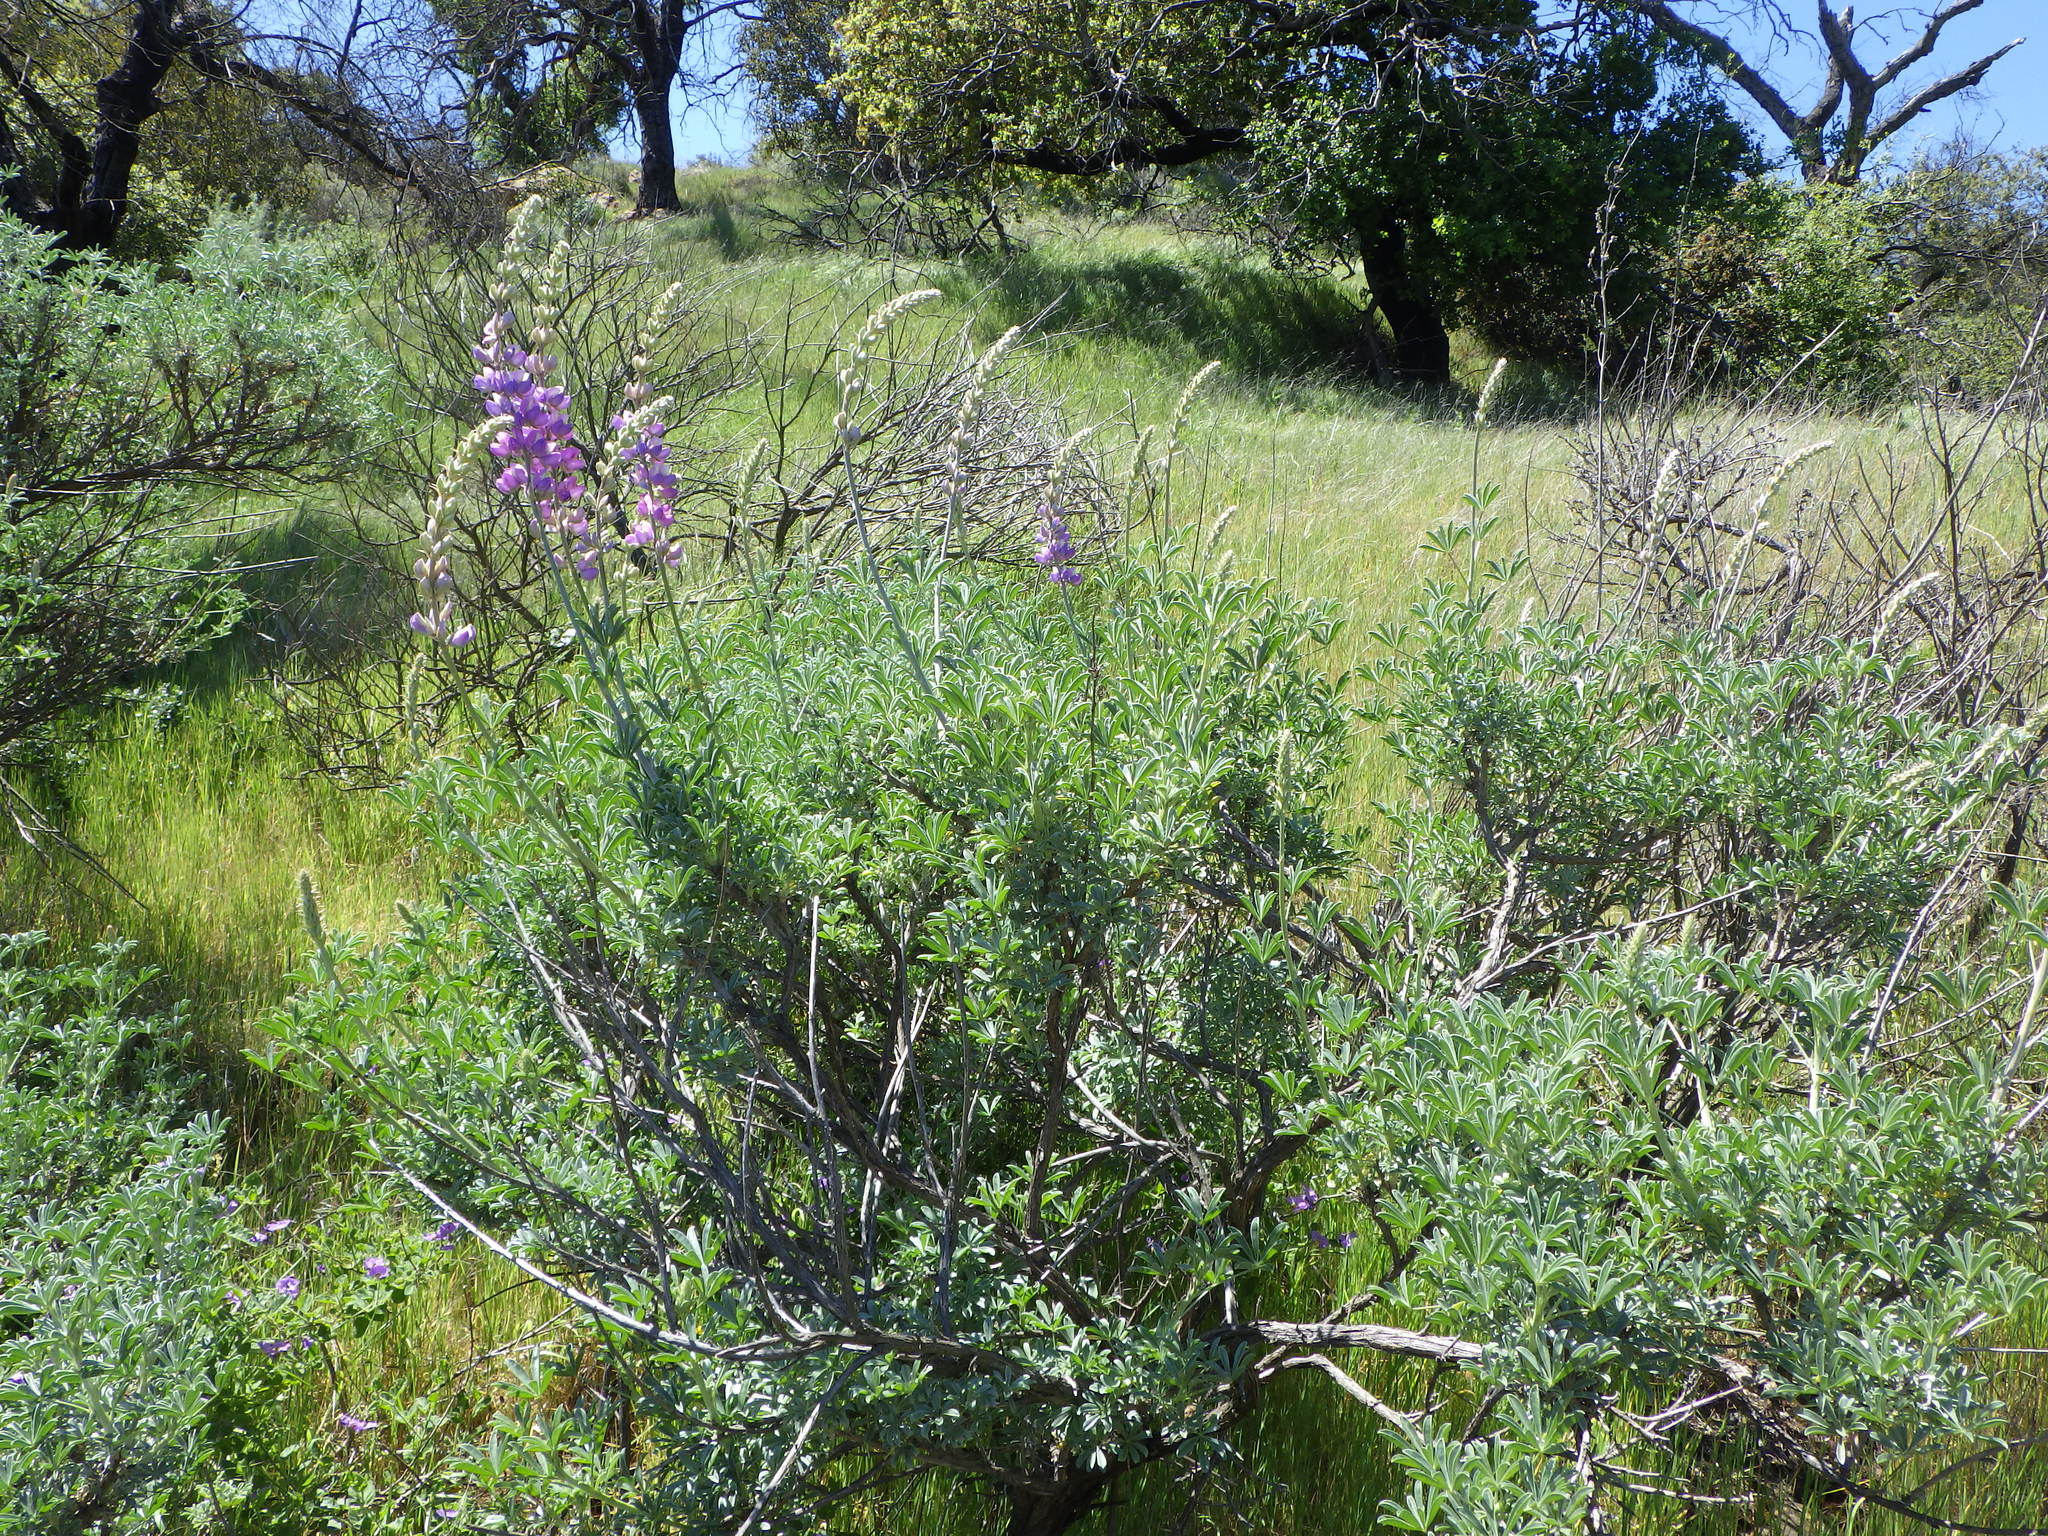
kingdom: Plantae
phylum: Tracheophyta
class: Magnoliopsida
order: Fabales
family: Fabaceae
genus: Lupinus
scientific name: Lupinus excubitus
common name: Grape soda lupine
